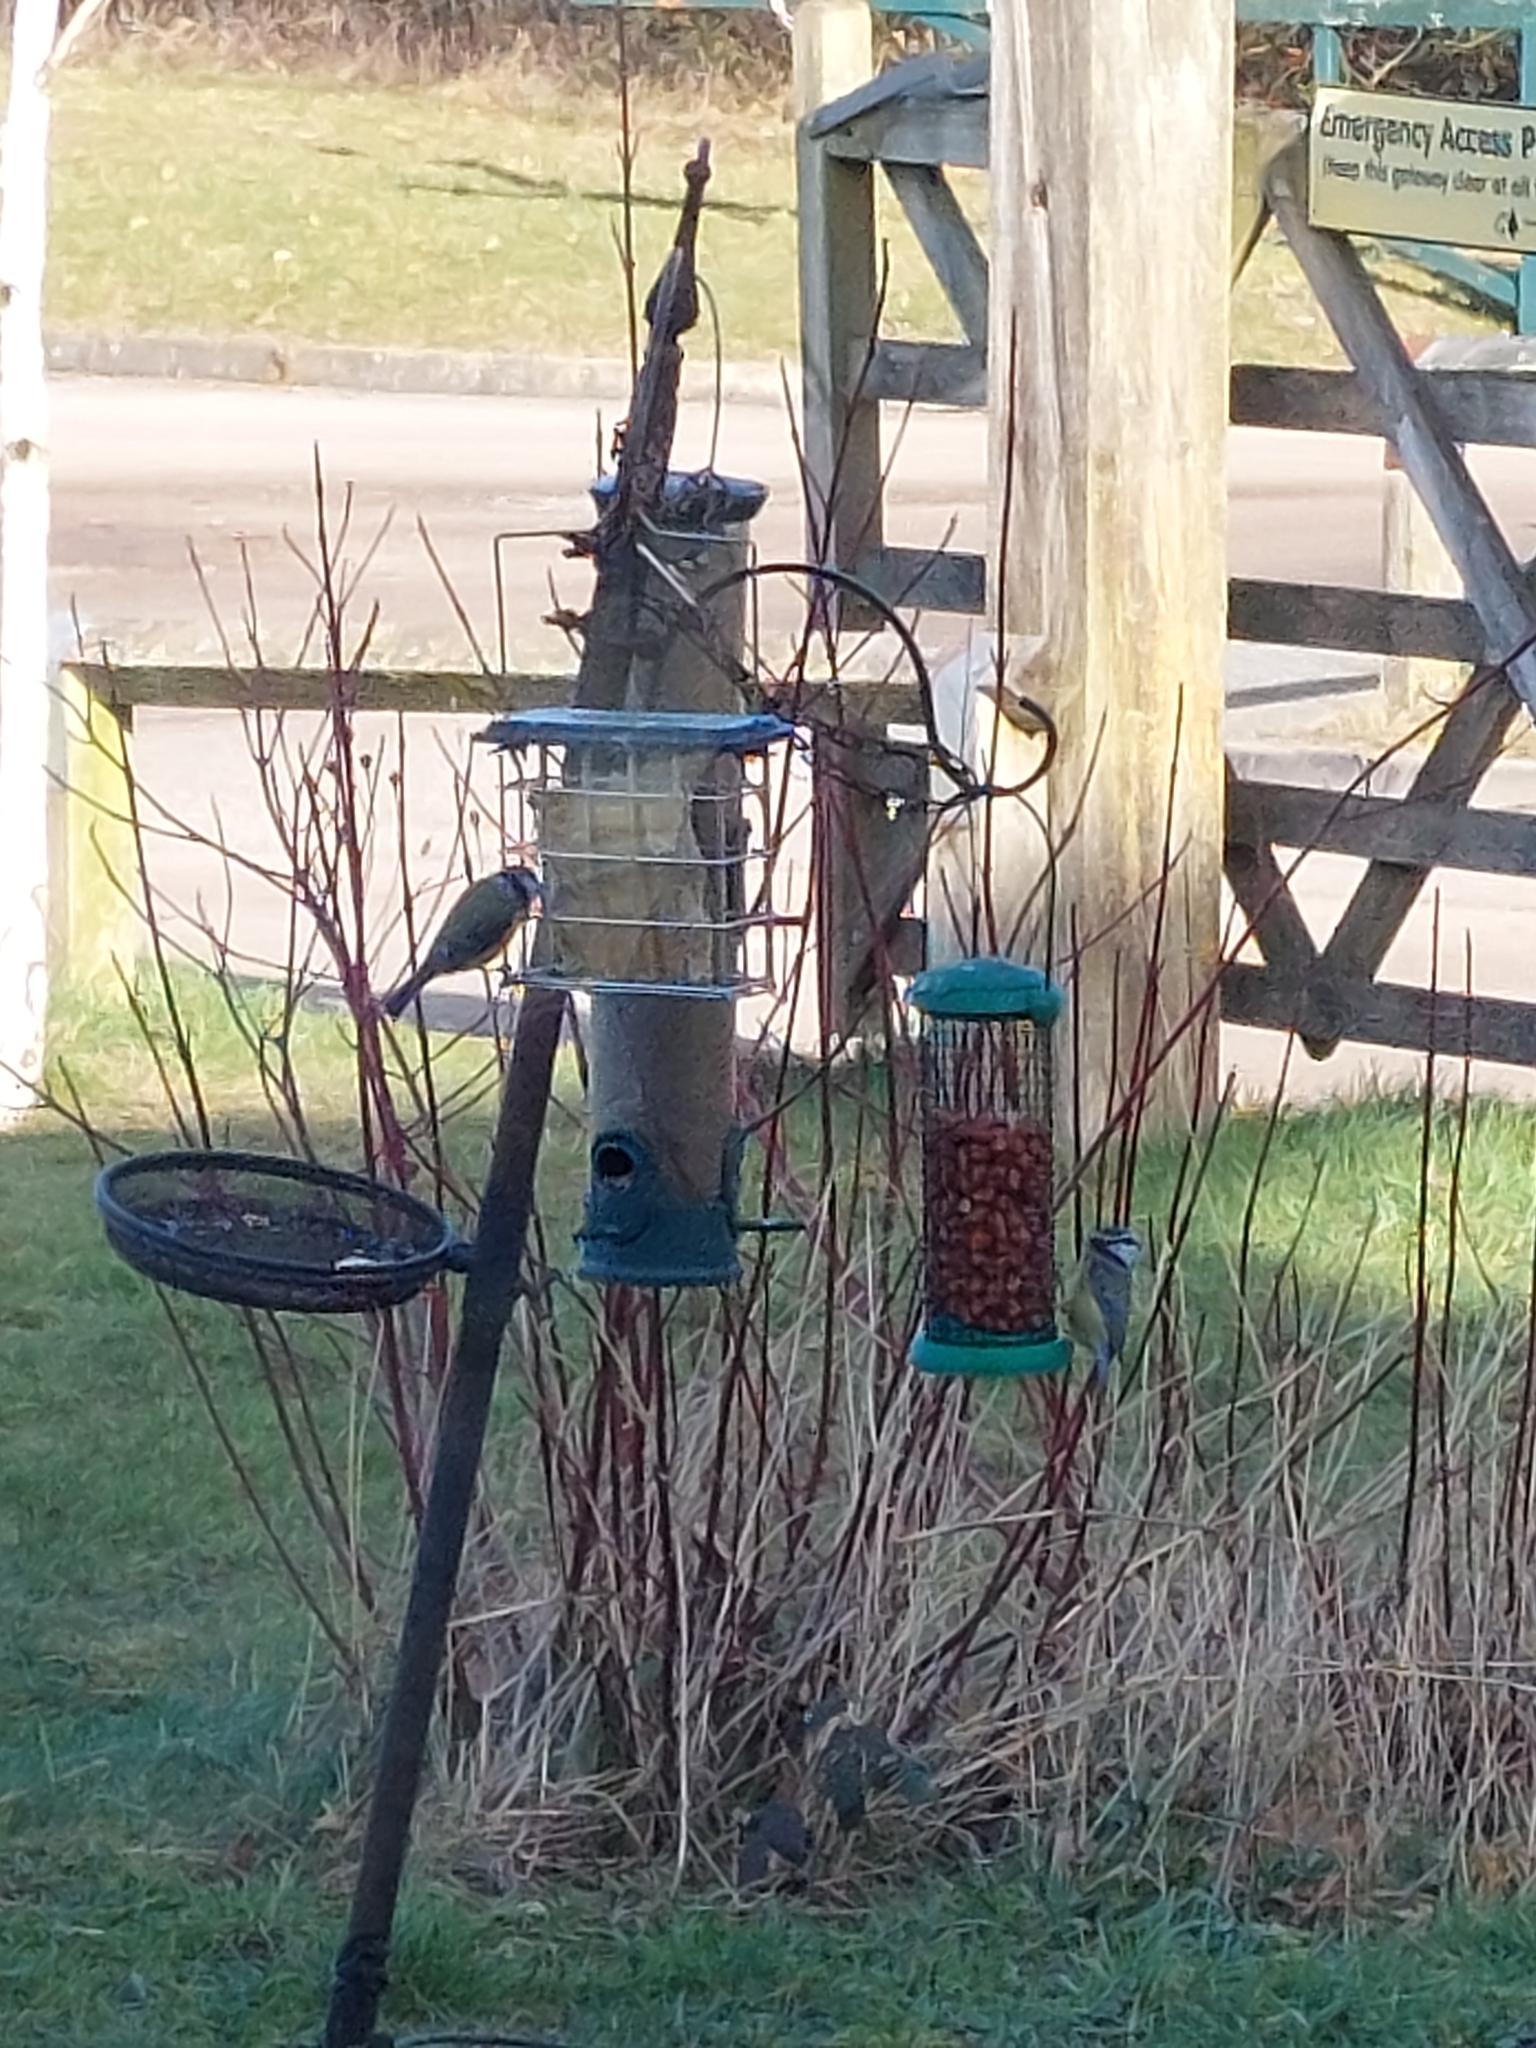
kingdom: Animalia
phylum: Chordata
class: Aves
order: Passeriformes
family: Paridae
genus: Cyanistes
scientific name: Cyanistes caeruleus
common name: Eurasian blue tit
